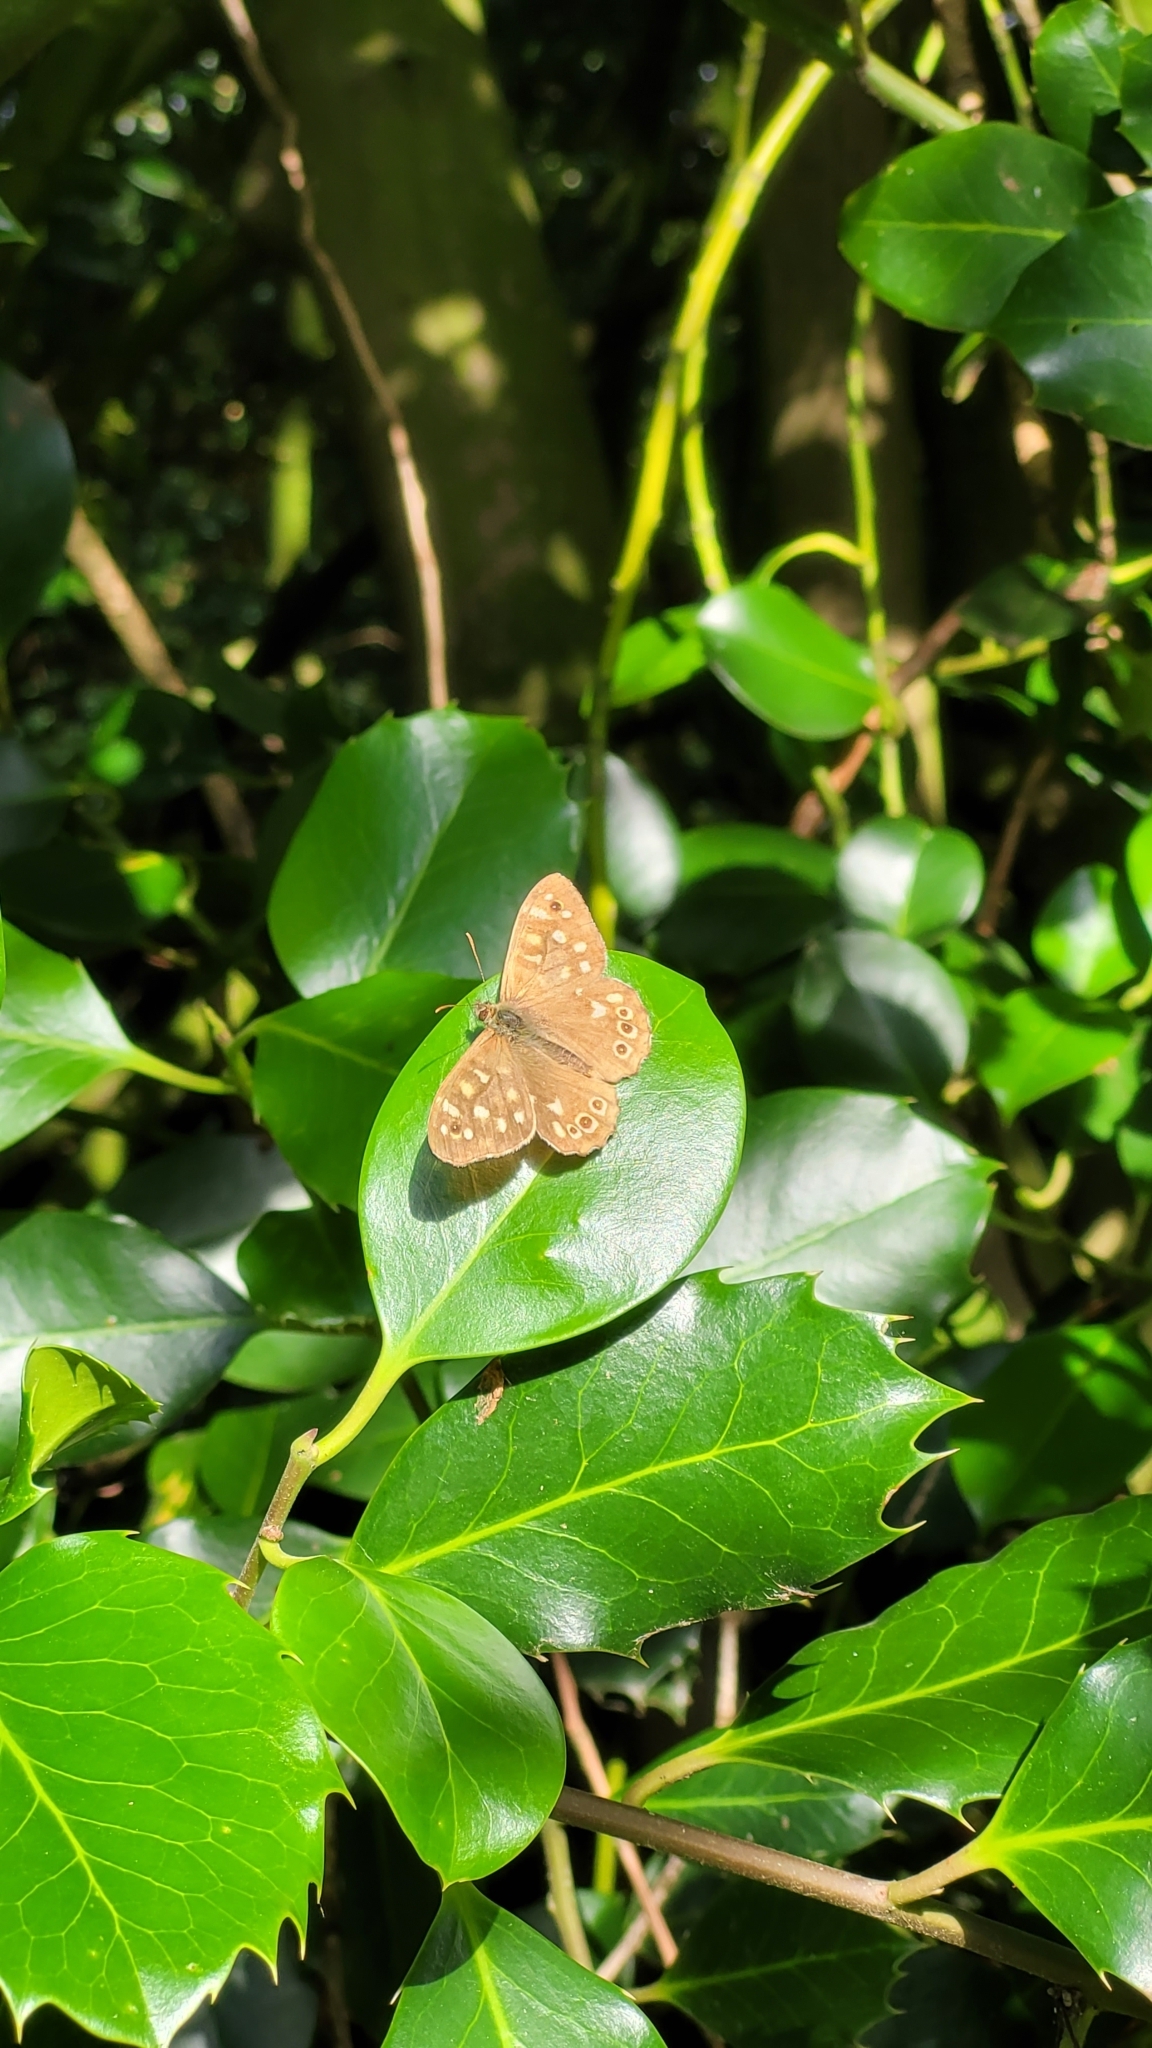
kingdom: Animalia
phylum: Arthropoda
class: Insecta
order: Lepidoptera
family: Nymphalidae
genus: Pararge
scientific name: Pararge aegeria
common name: Speckled wood
